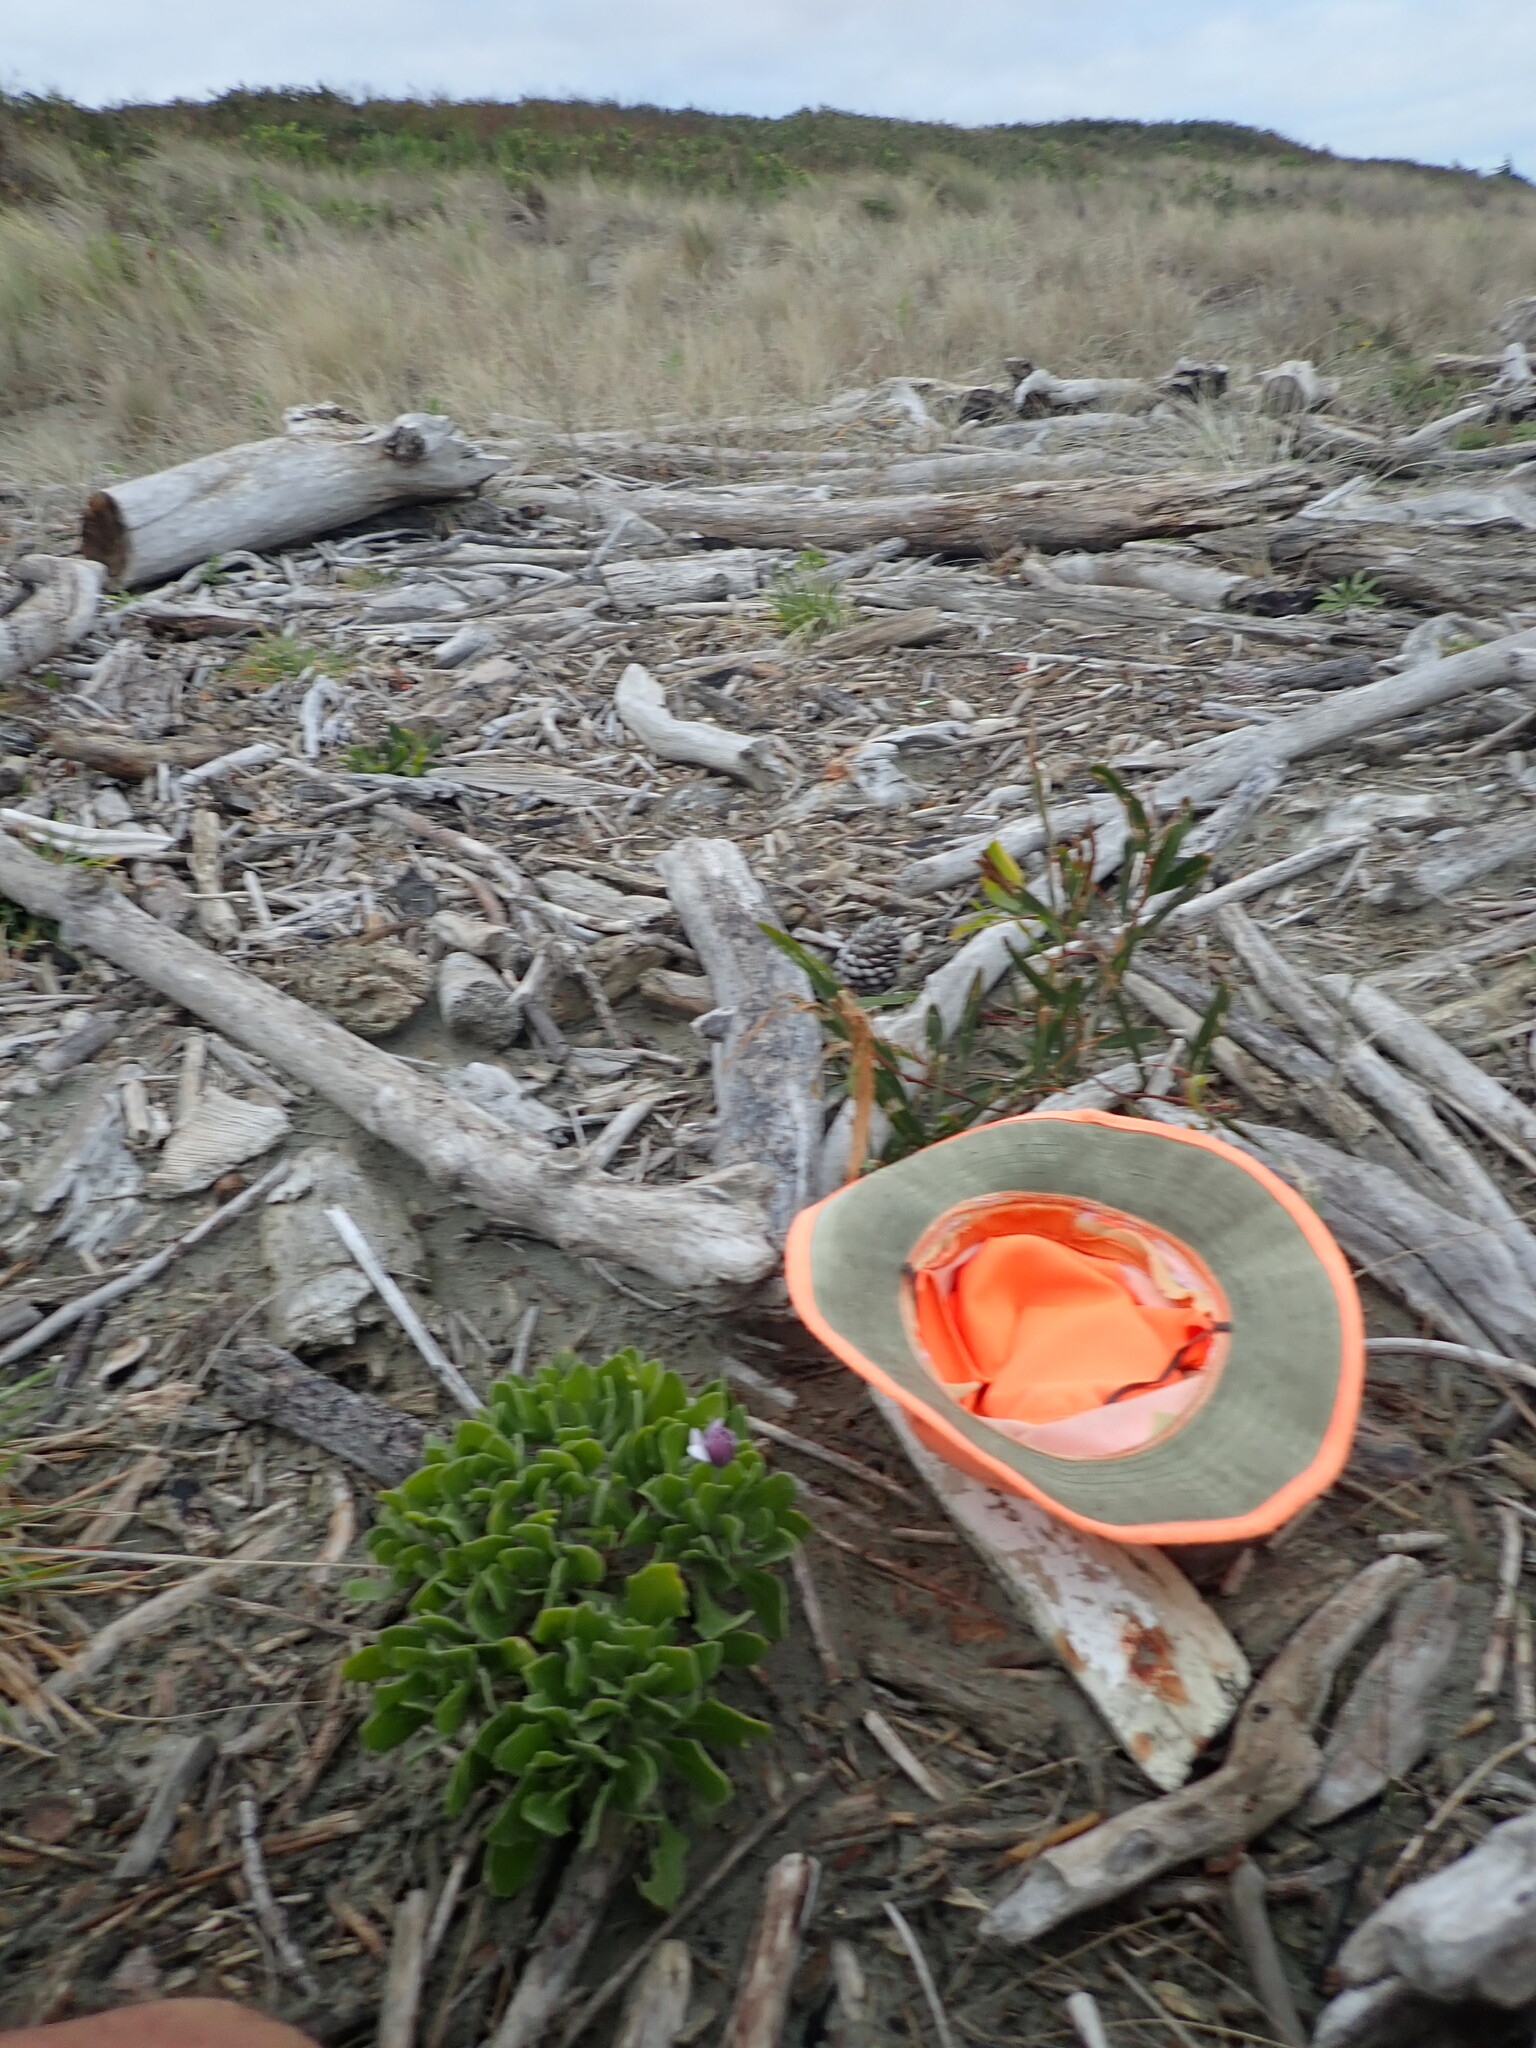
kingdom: Plantae
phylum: Tracheophyta
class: Magnoliopsida
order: Asterales
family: Asteraceae
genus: Dimorphotheca
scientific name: Dimorphotheca fruticosa
